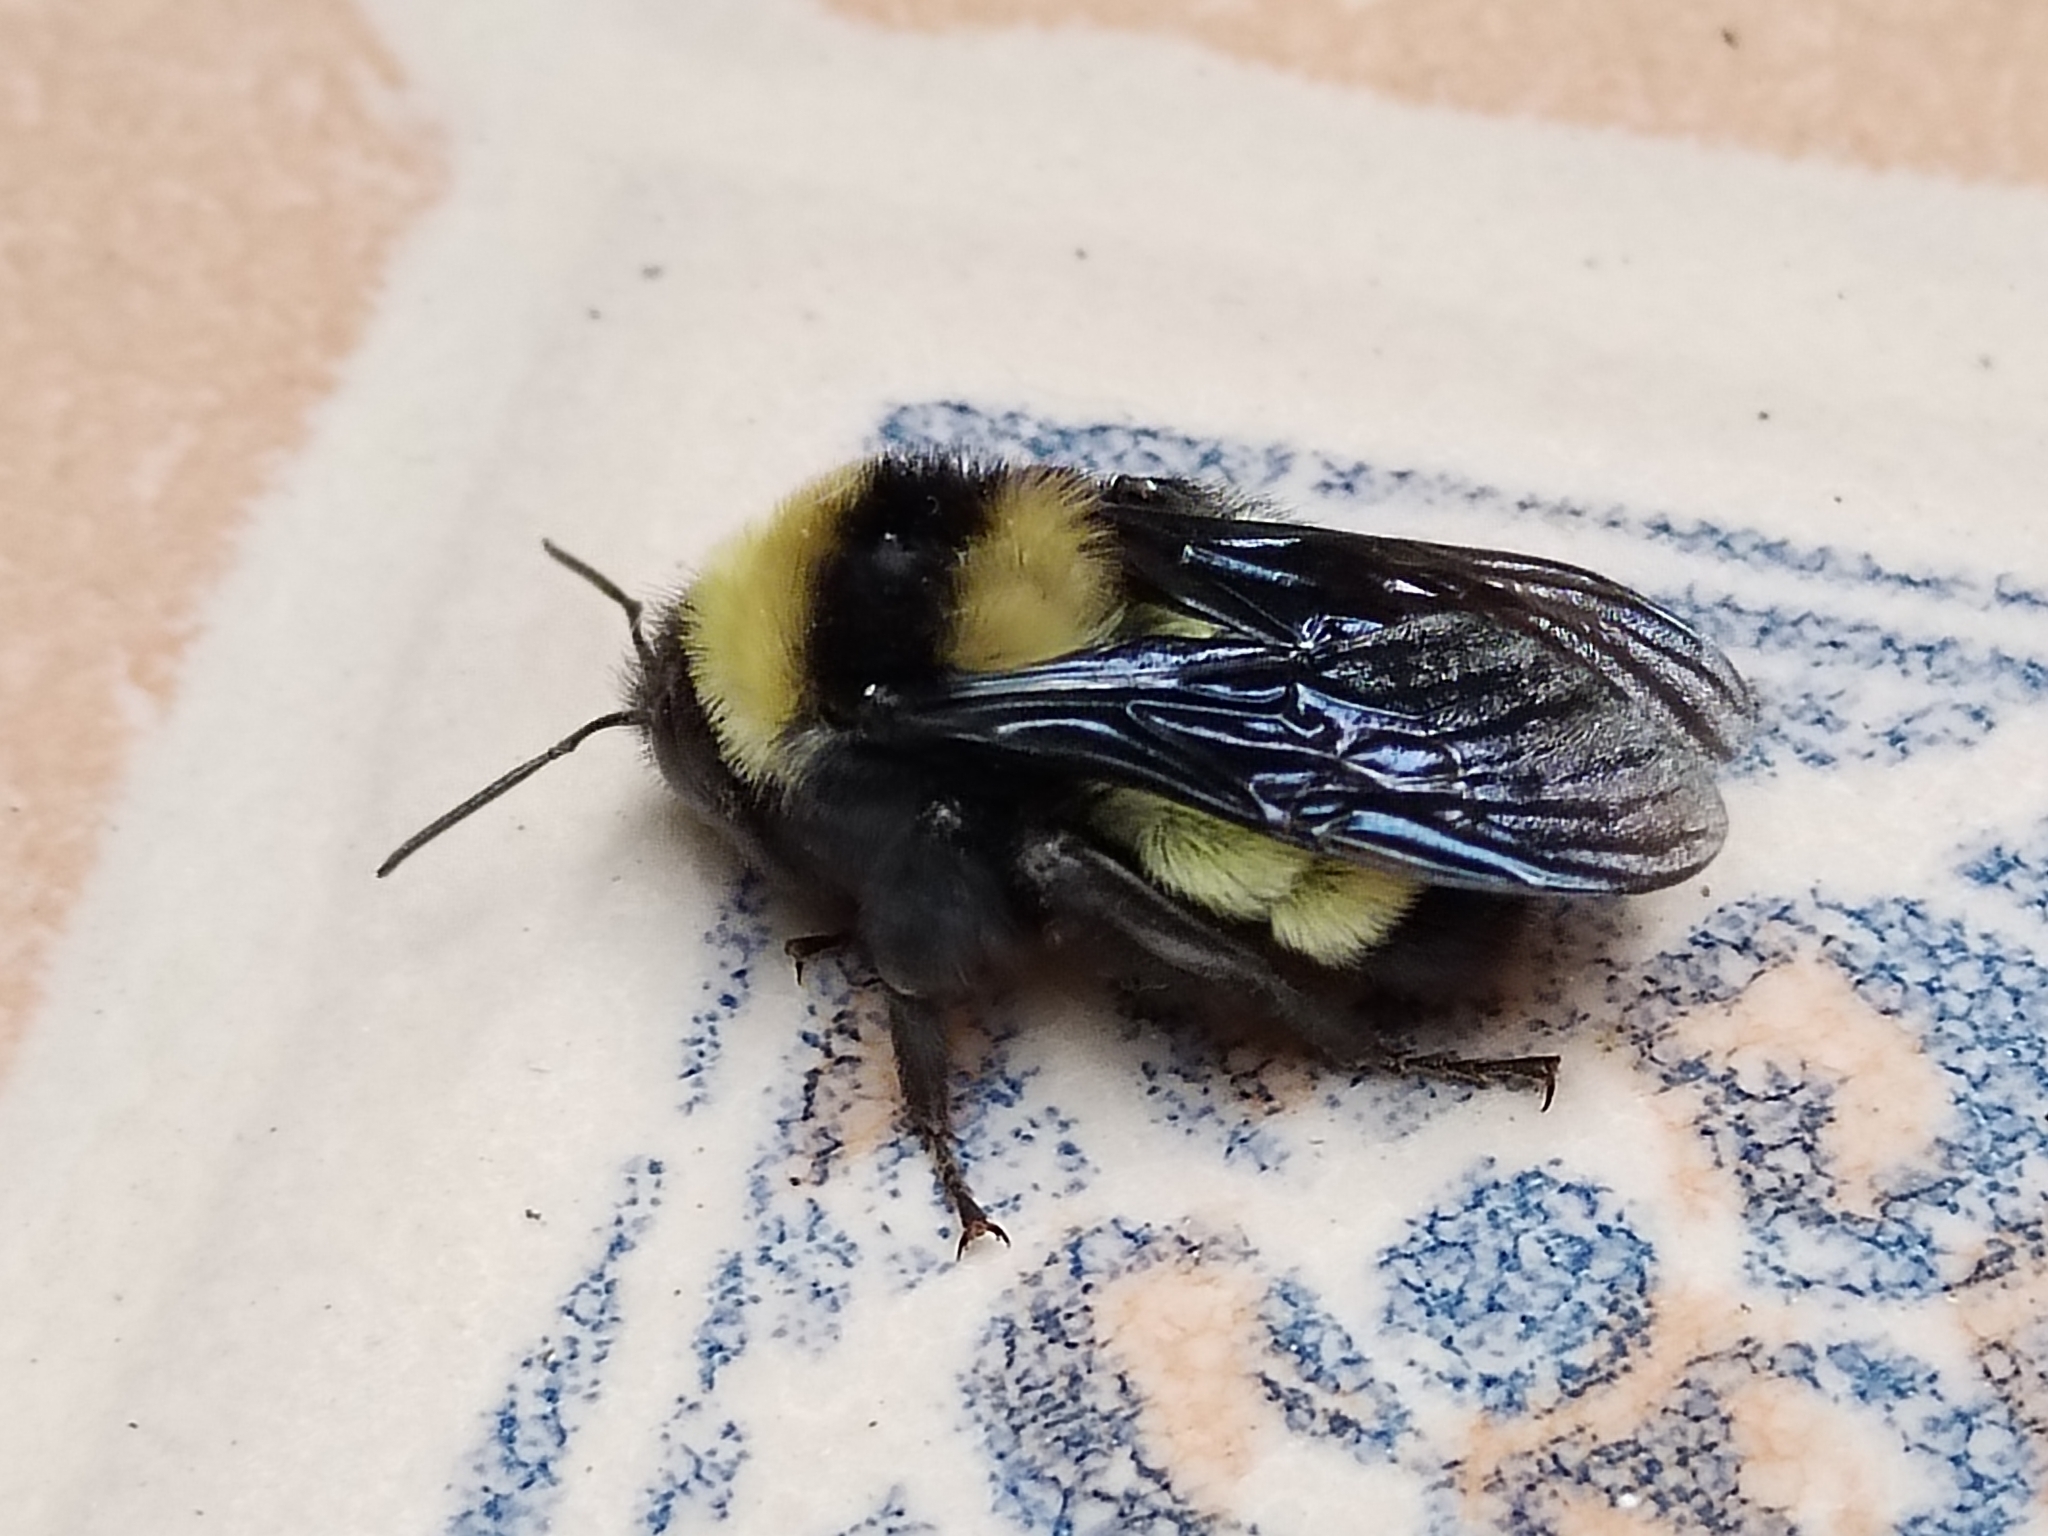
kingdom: Animalia
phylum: Arthropoda
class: Insecta
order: Hymenoptera
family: Apidae
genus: Bombus
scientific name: Bombus sonorus
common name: Sonoran bumble bee
